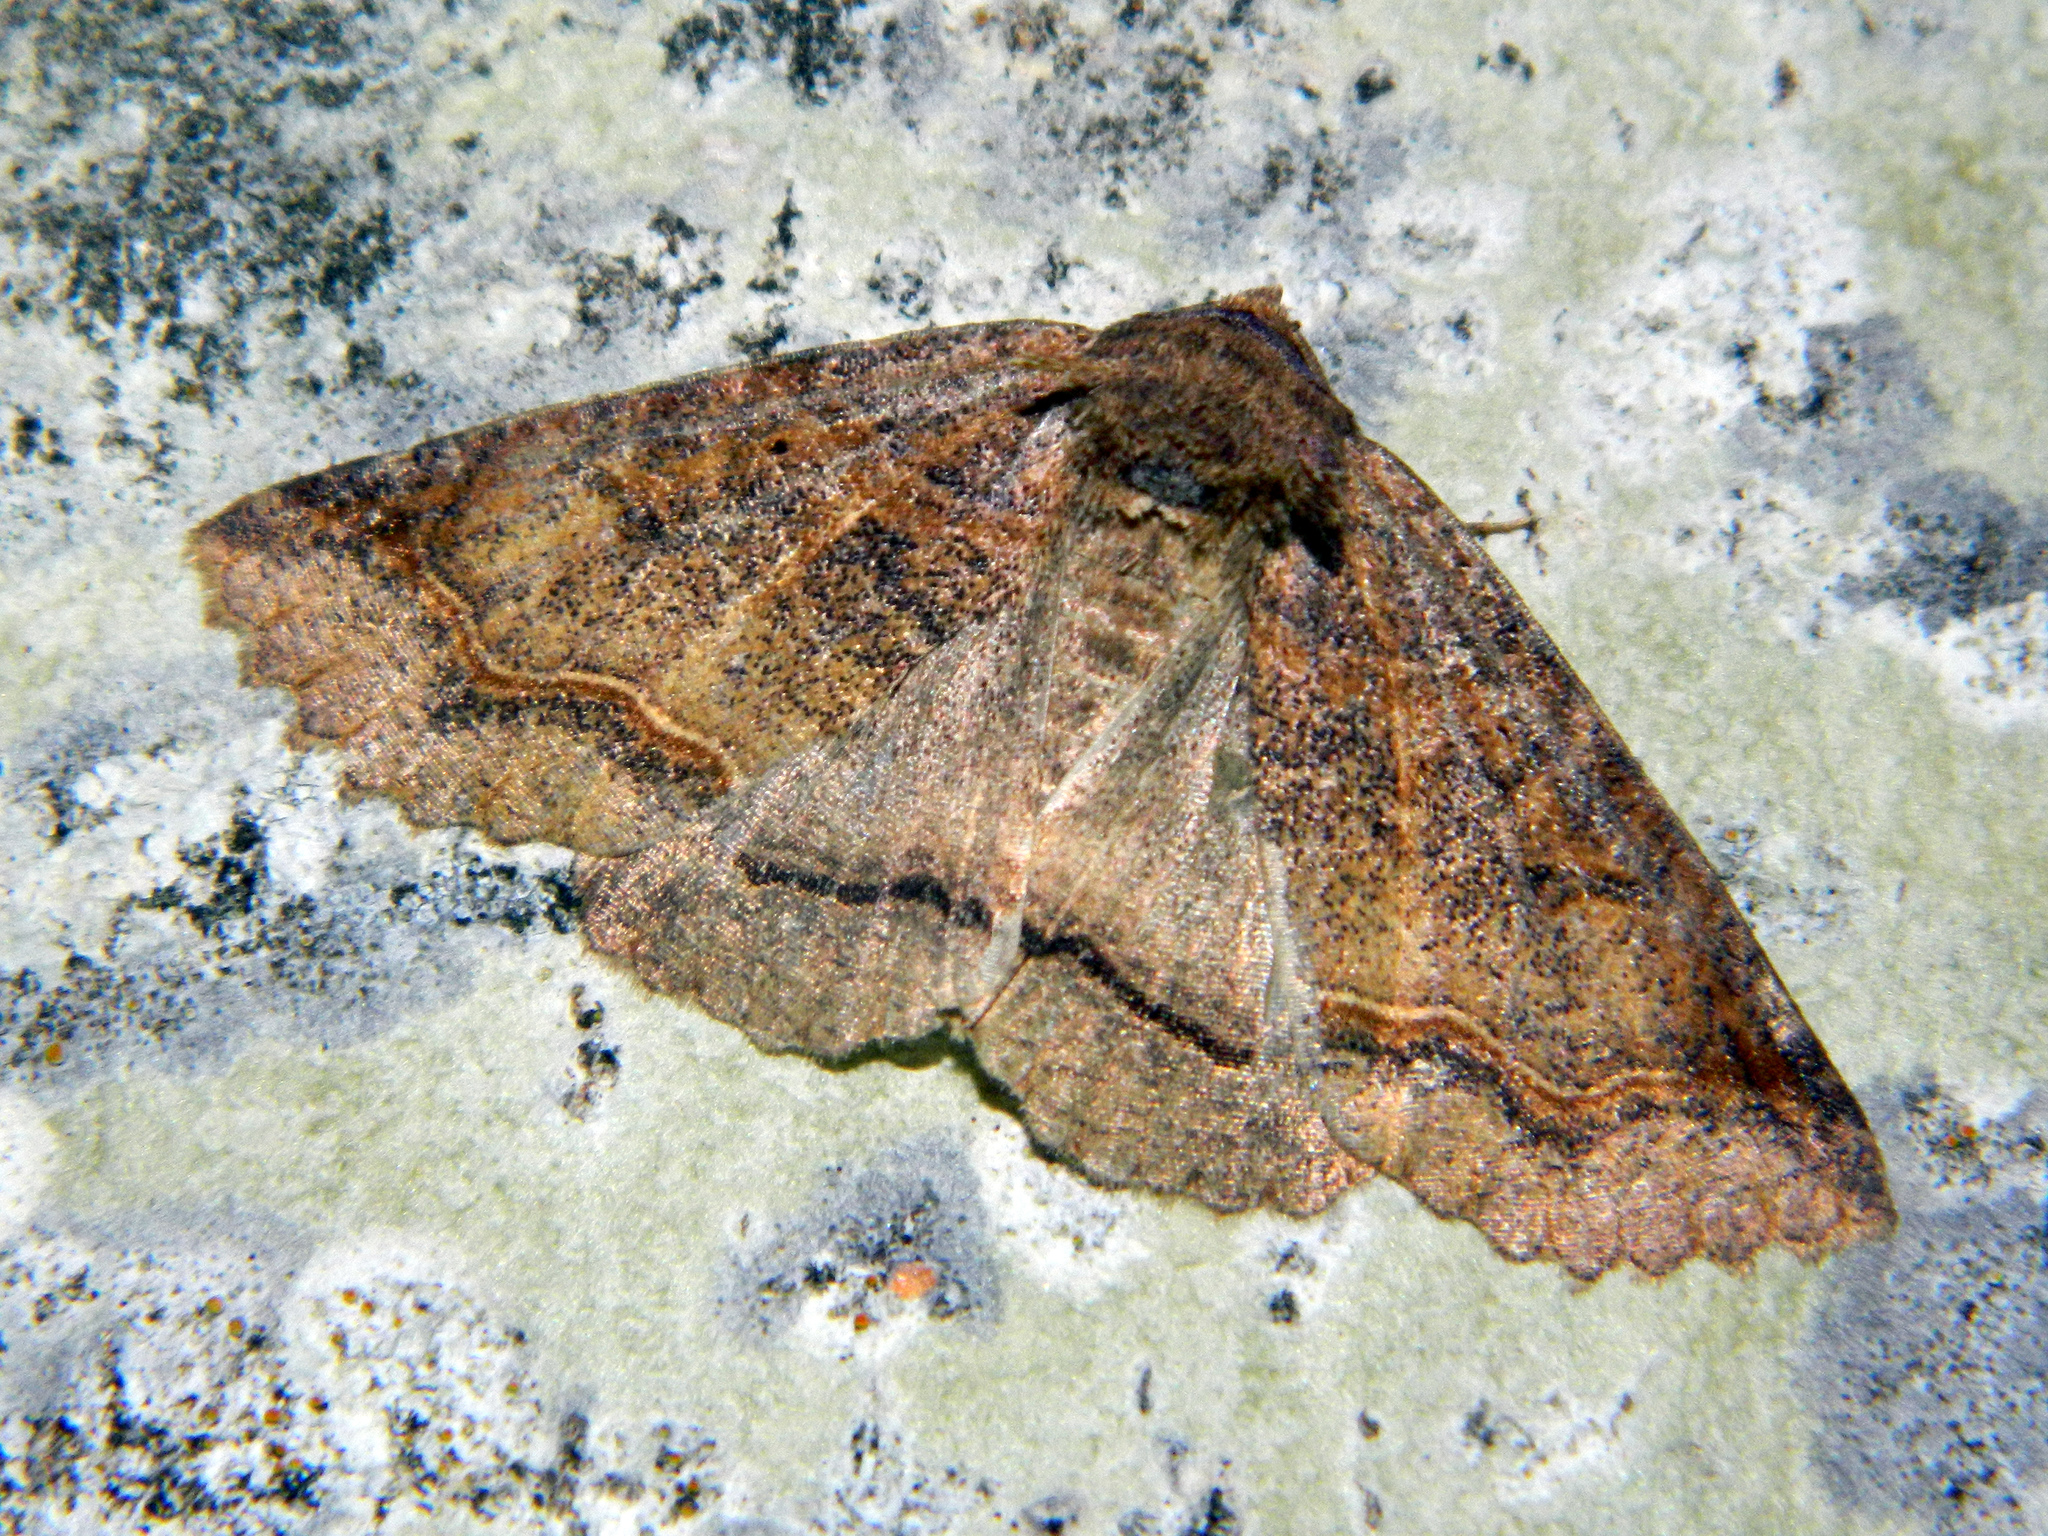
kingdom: Animalia
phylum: Arthropoda
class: Insecta
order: Lepidoptera
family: Erebidae
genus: Zale
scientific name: Zale unilineata
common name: One-lined zale moth
